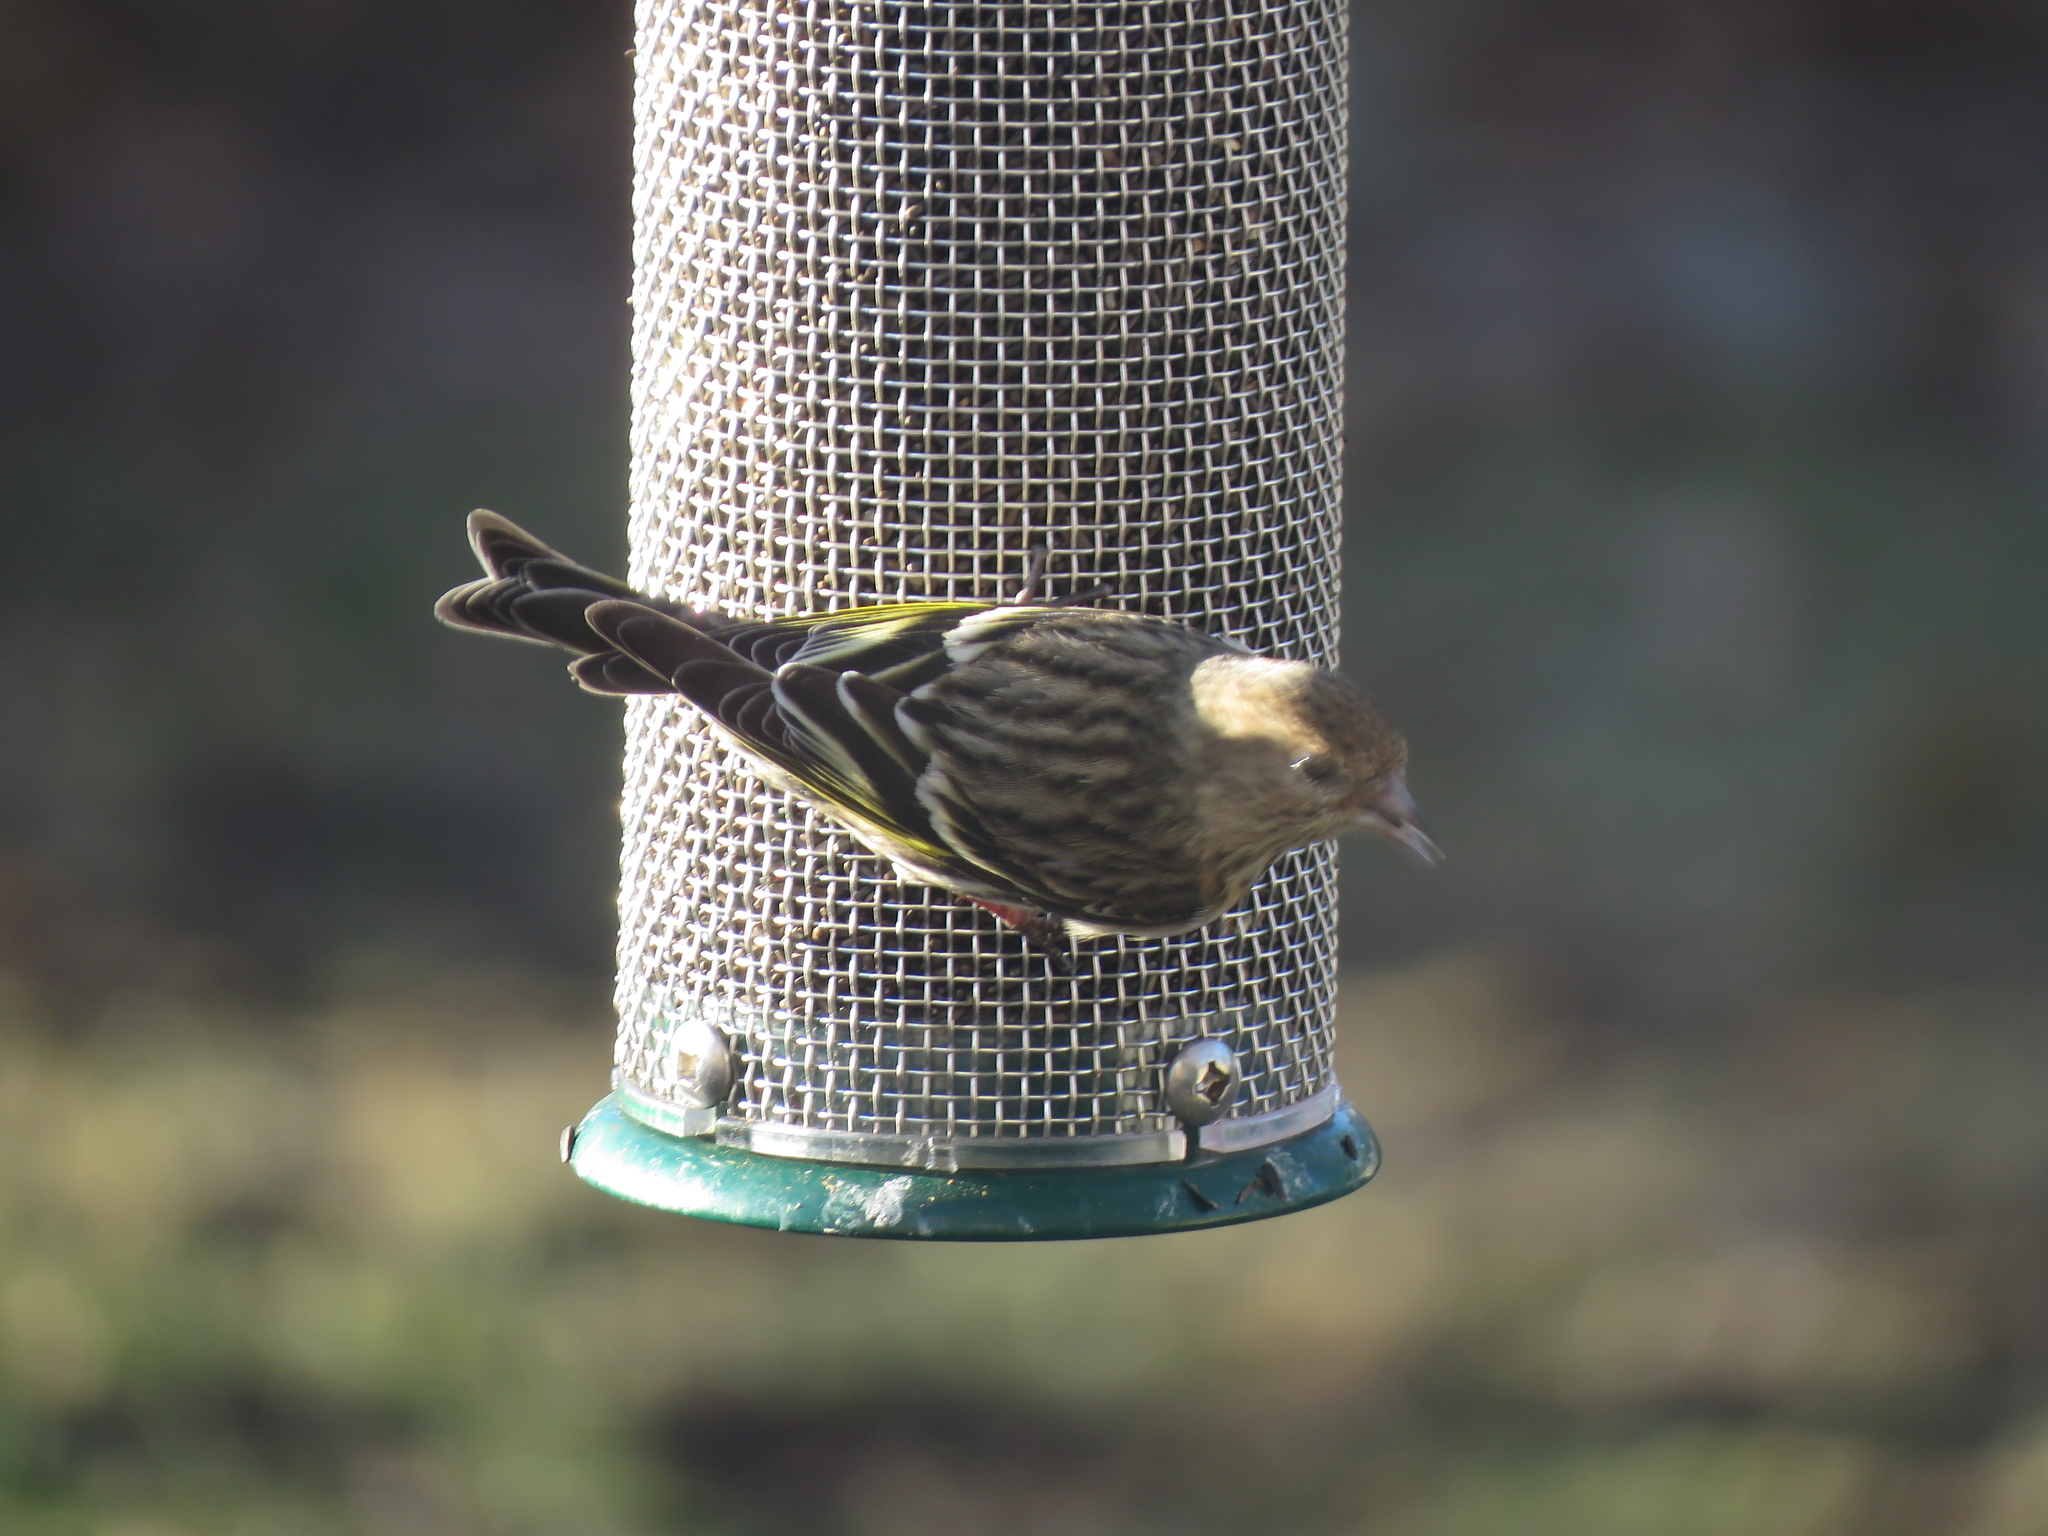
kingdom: Animalia
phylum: Chordata
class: Aves
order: Passeriformes
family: Fringillidae
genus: Spinus
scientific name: Spinus pinus
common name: Pine siskin
